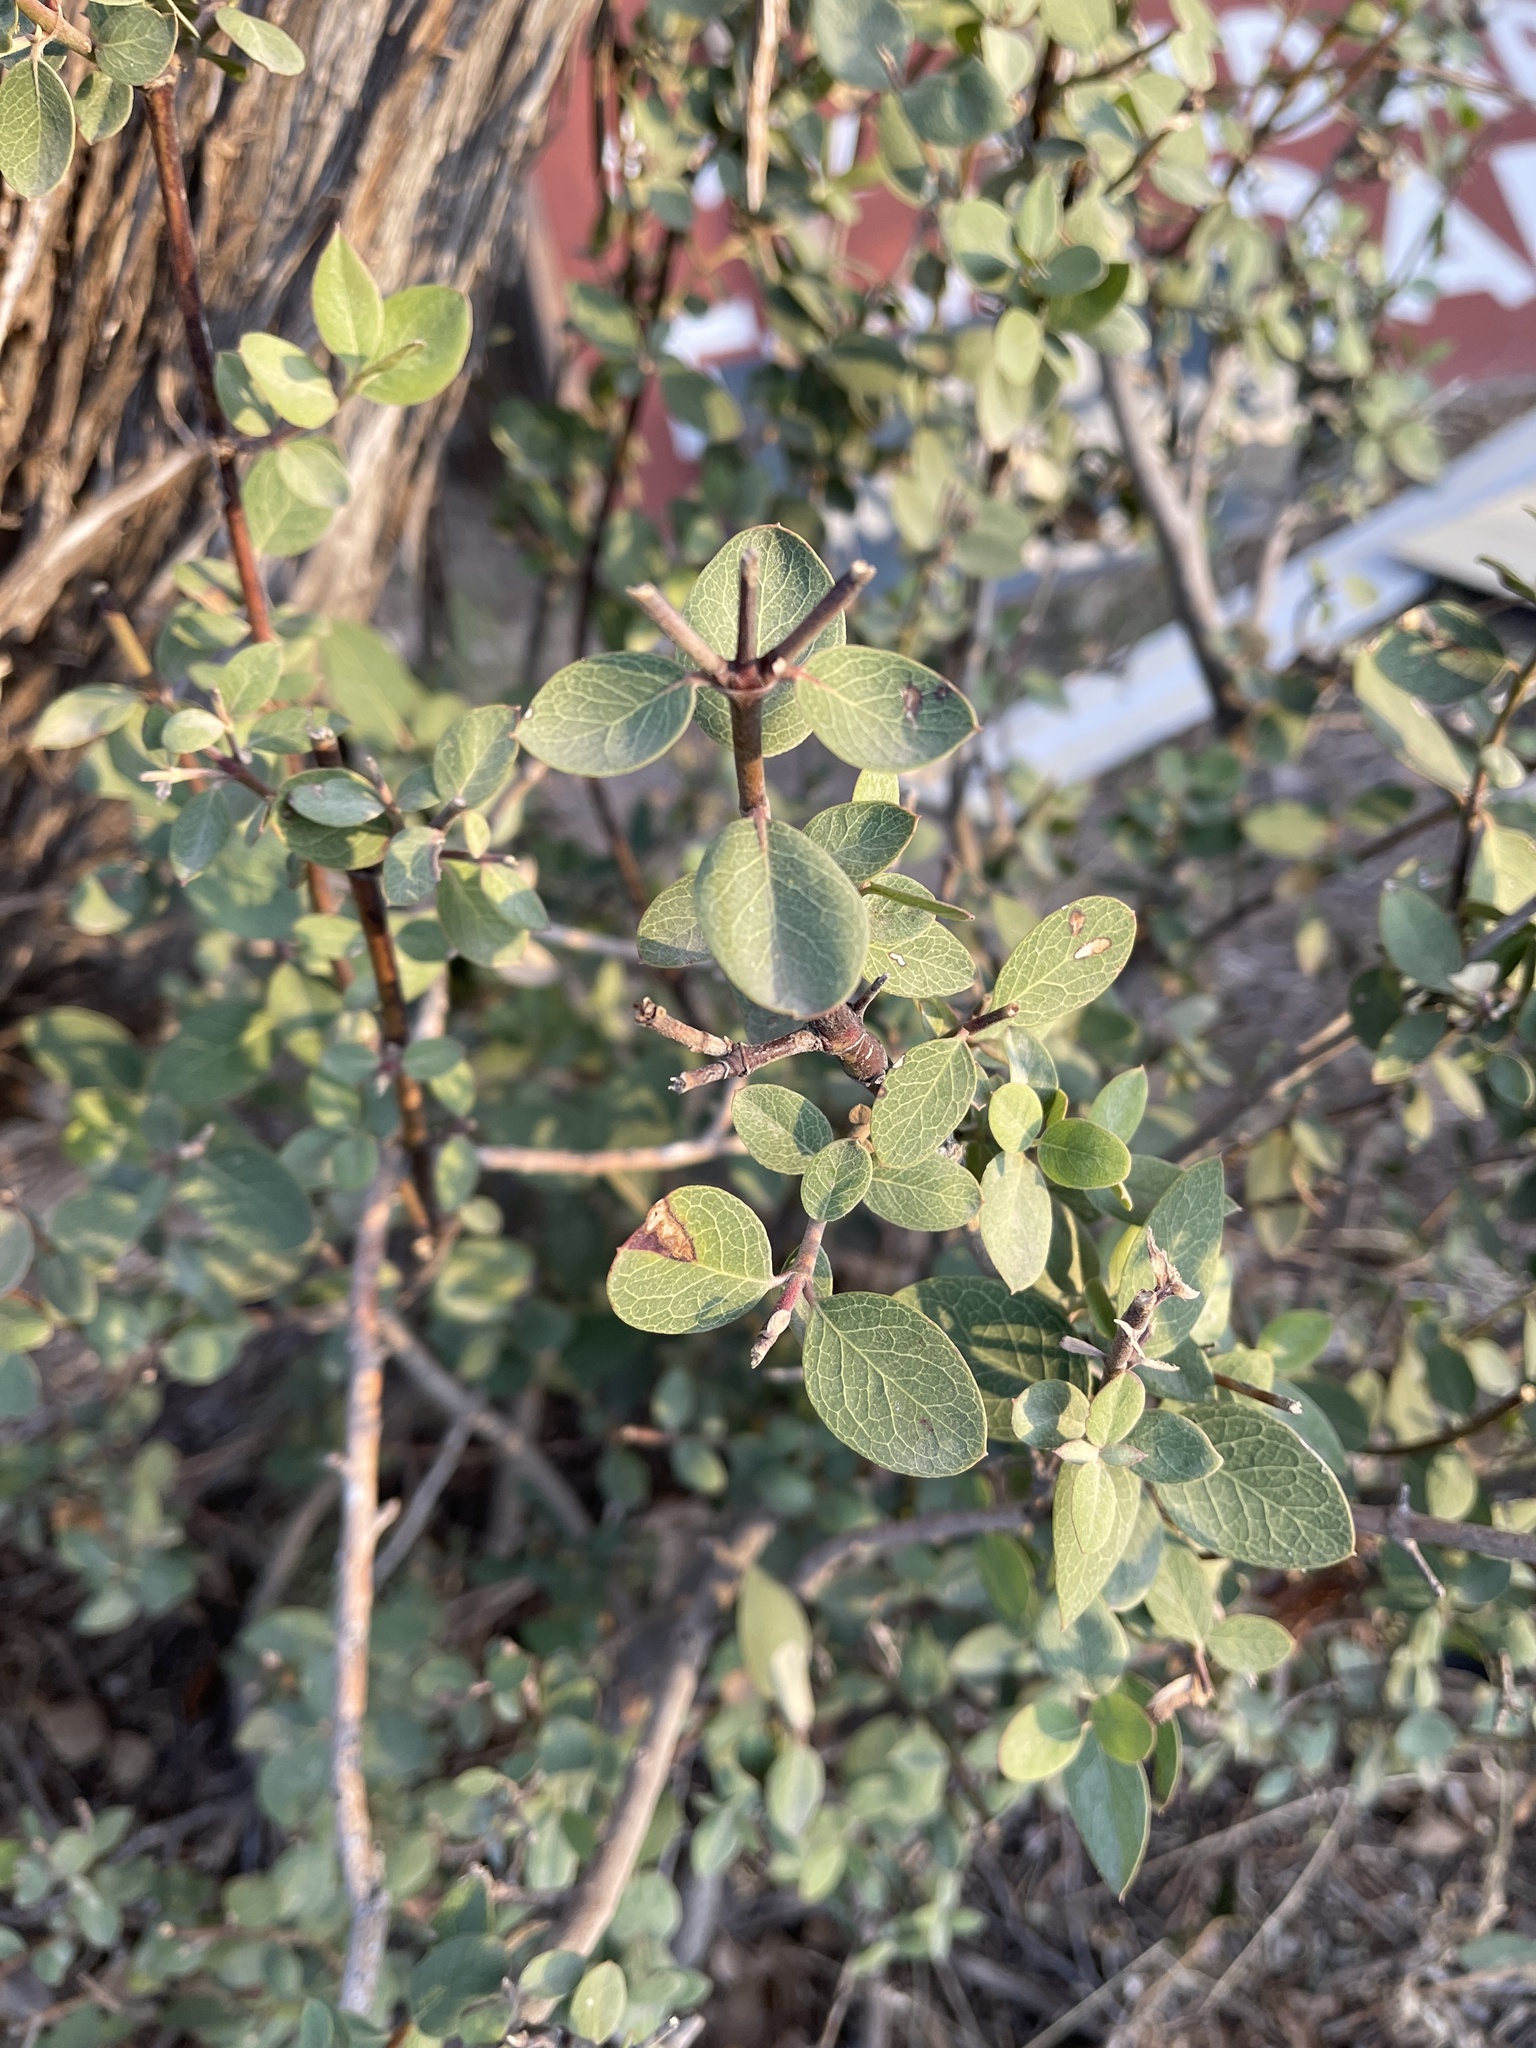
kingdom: Plantae
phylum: Tracheophyta
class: Magnoliopsida
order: Garryales
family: Garryaceae
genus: Garrya
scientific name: Garrya wrightii
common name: Wright's silktassel
